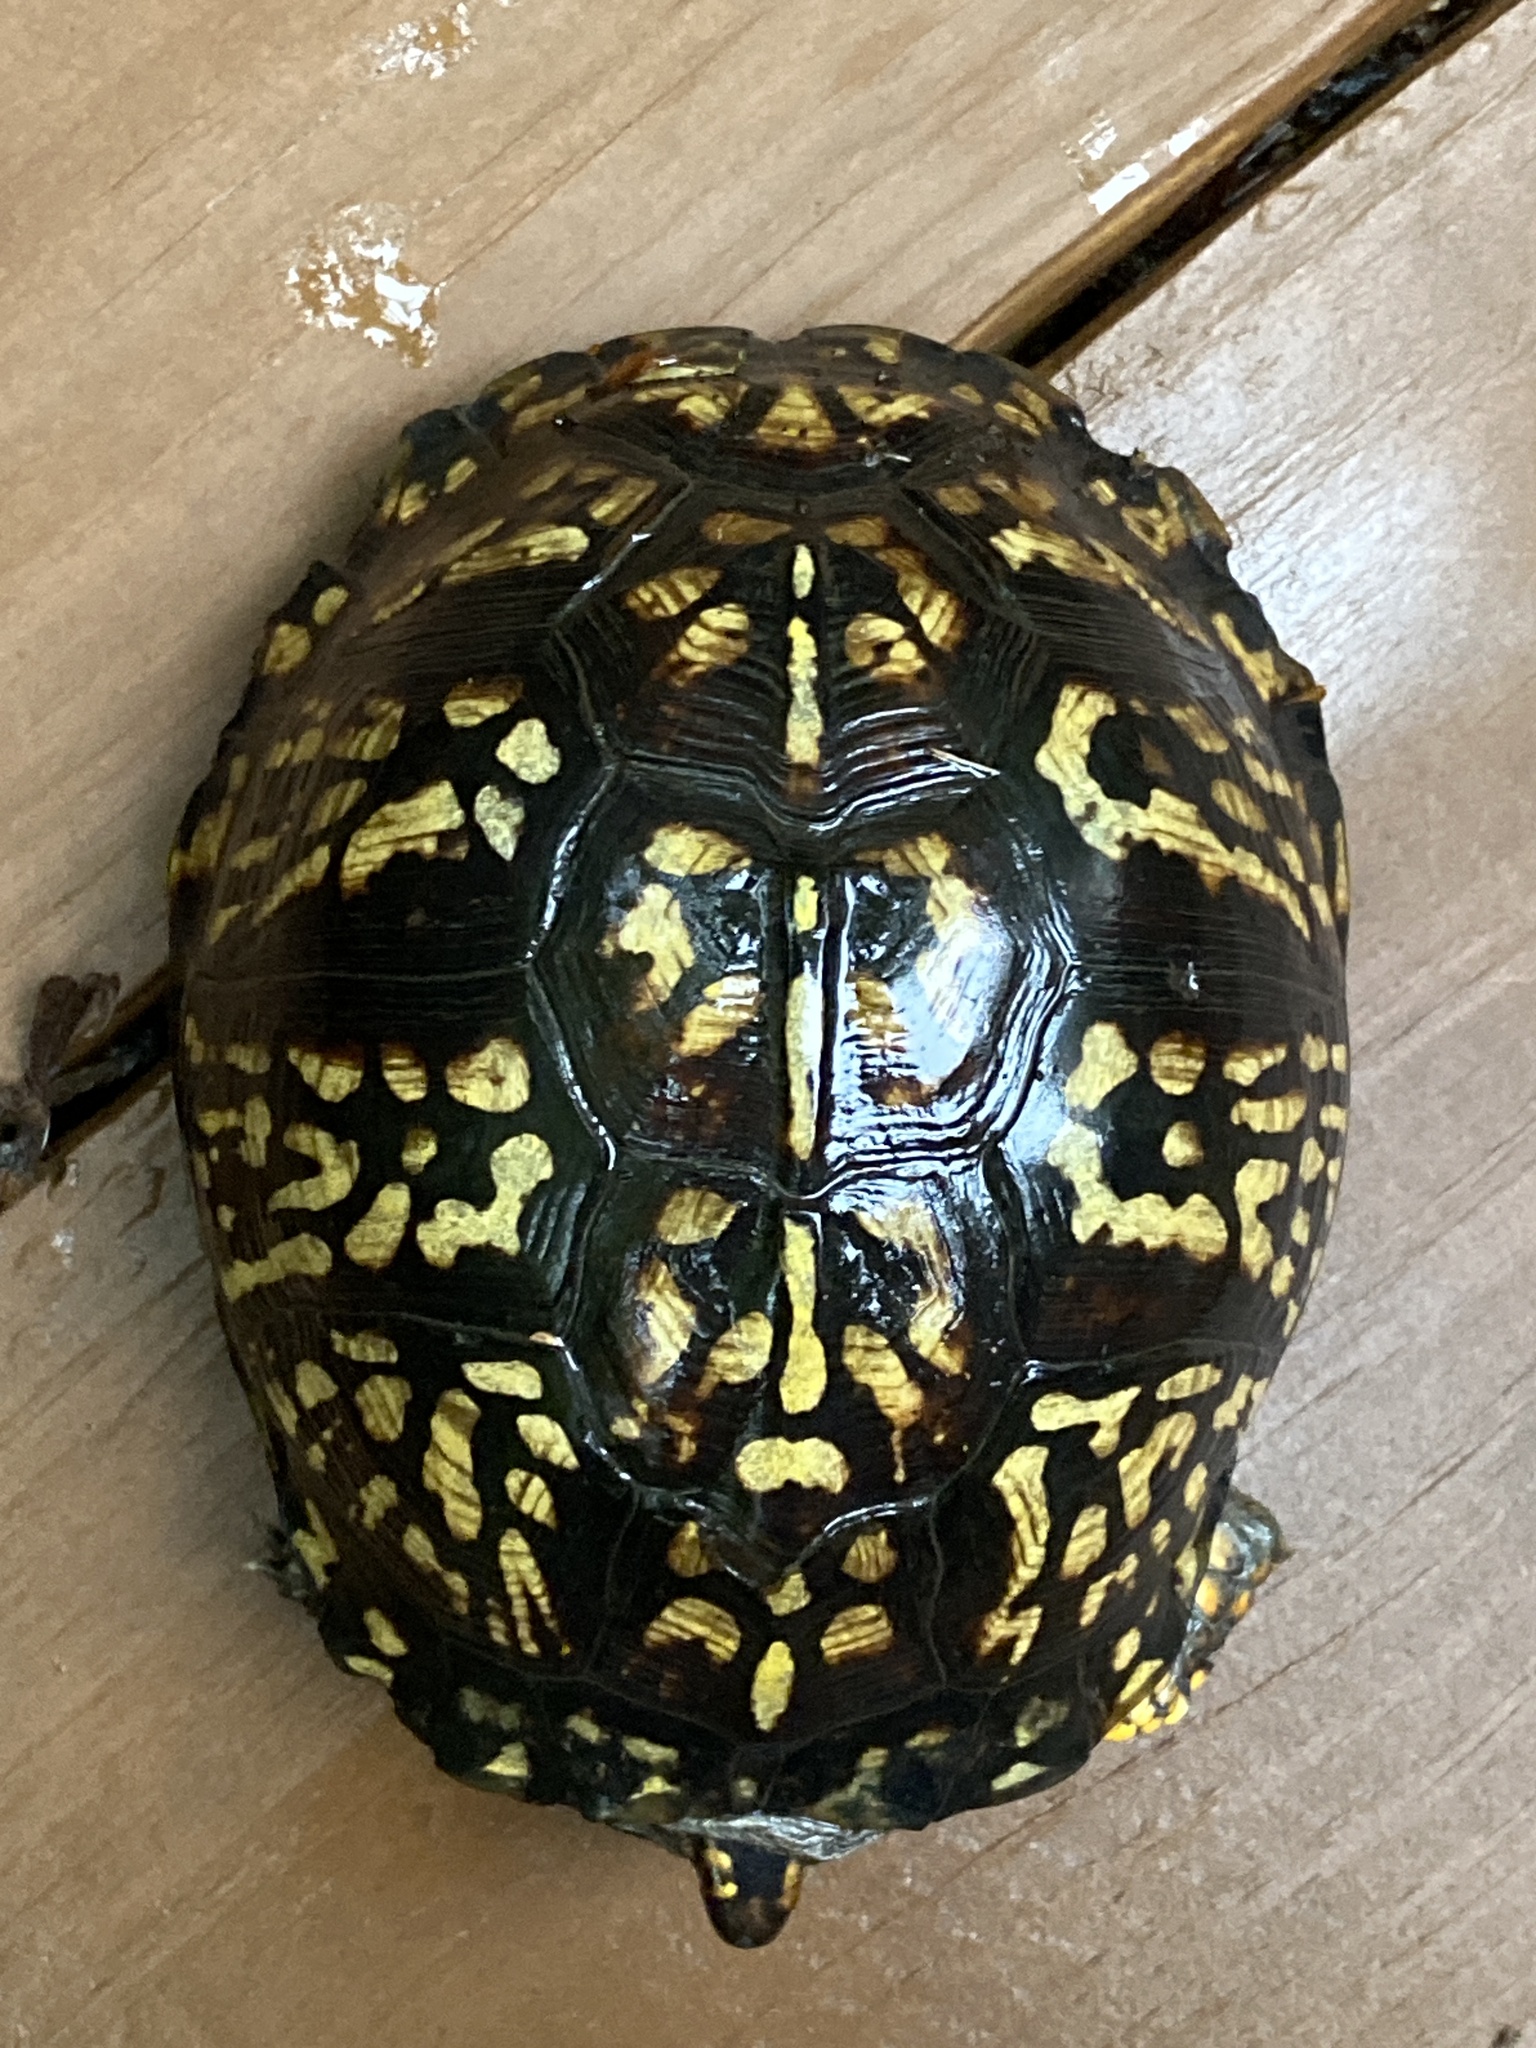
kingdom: Animalia
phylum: Chordata
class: Testudines
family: Emydidae
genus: Terrapene
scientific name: Terrapene carolina
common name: Common box turtle
